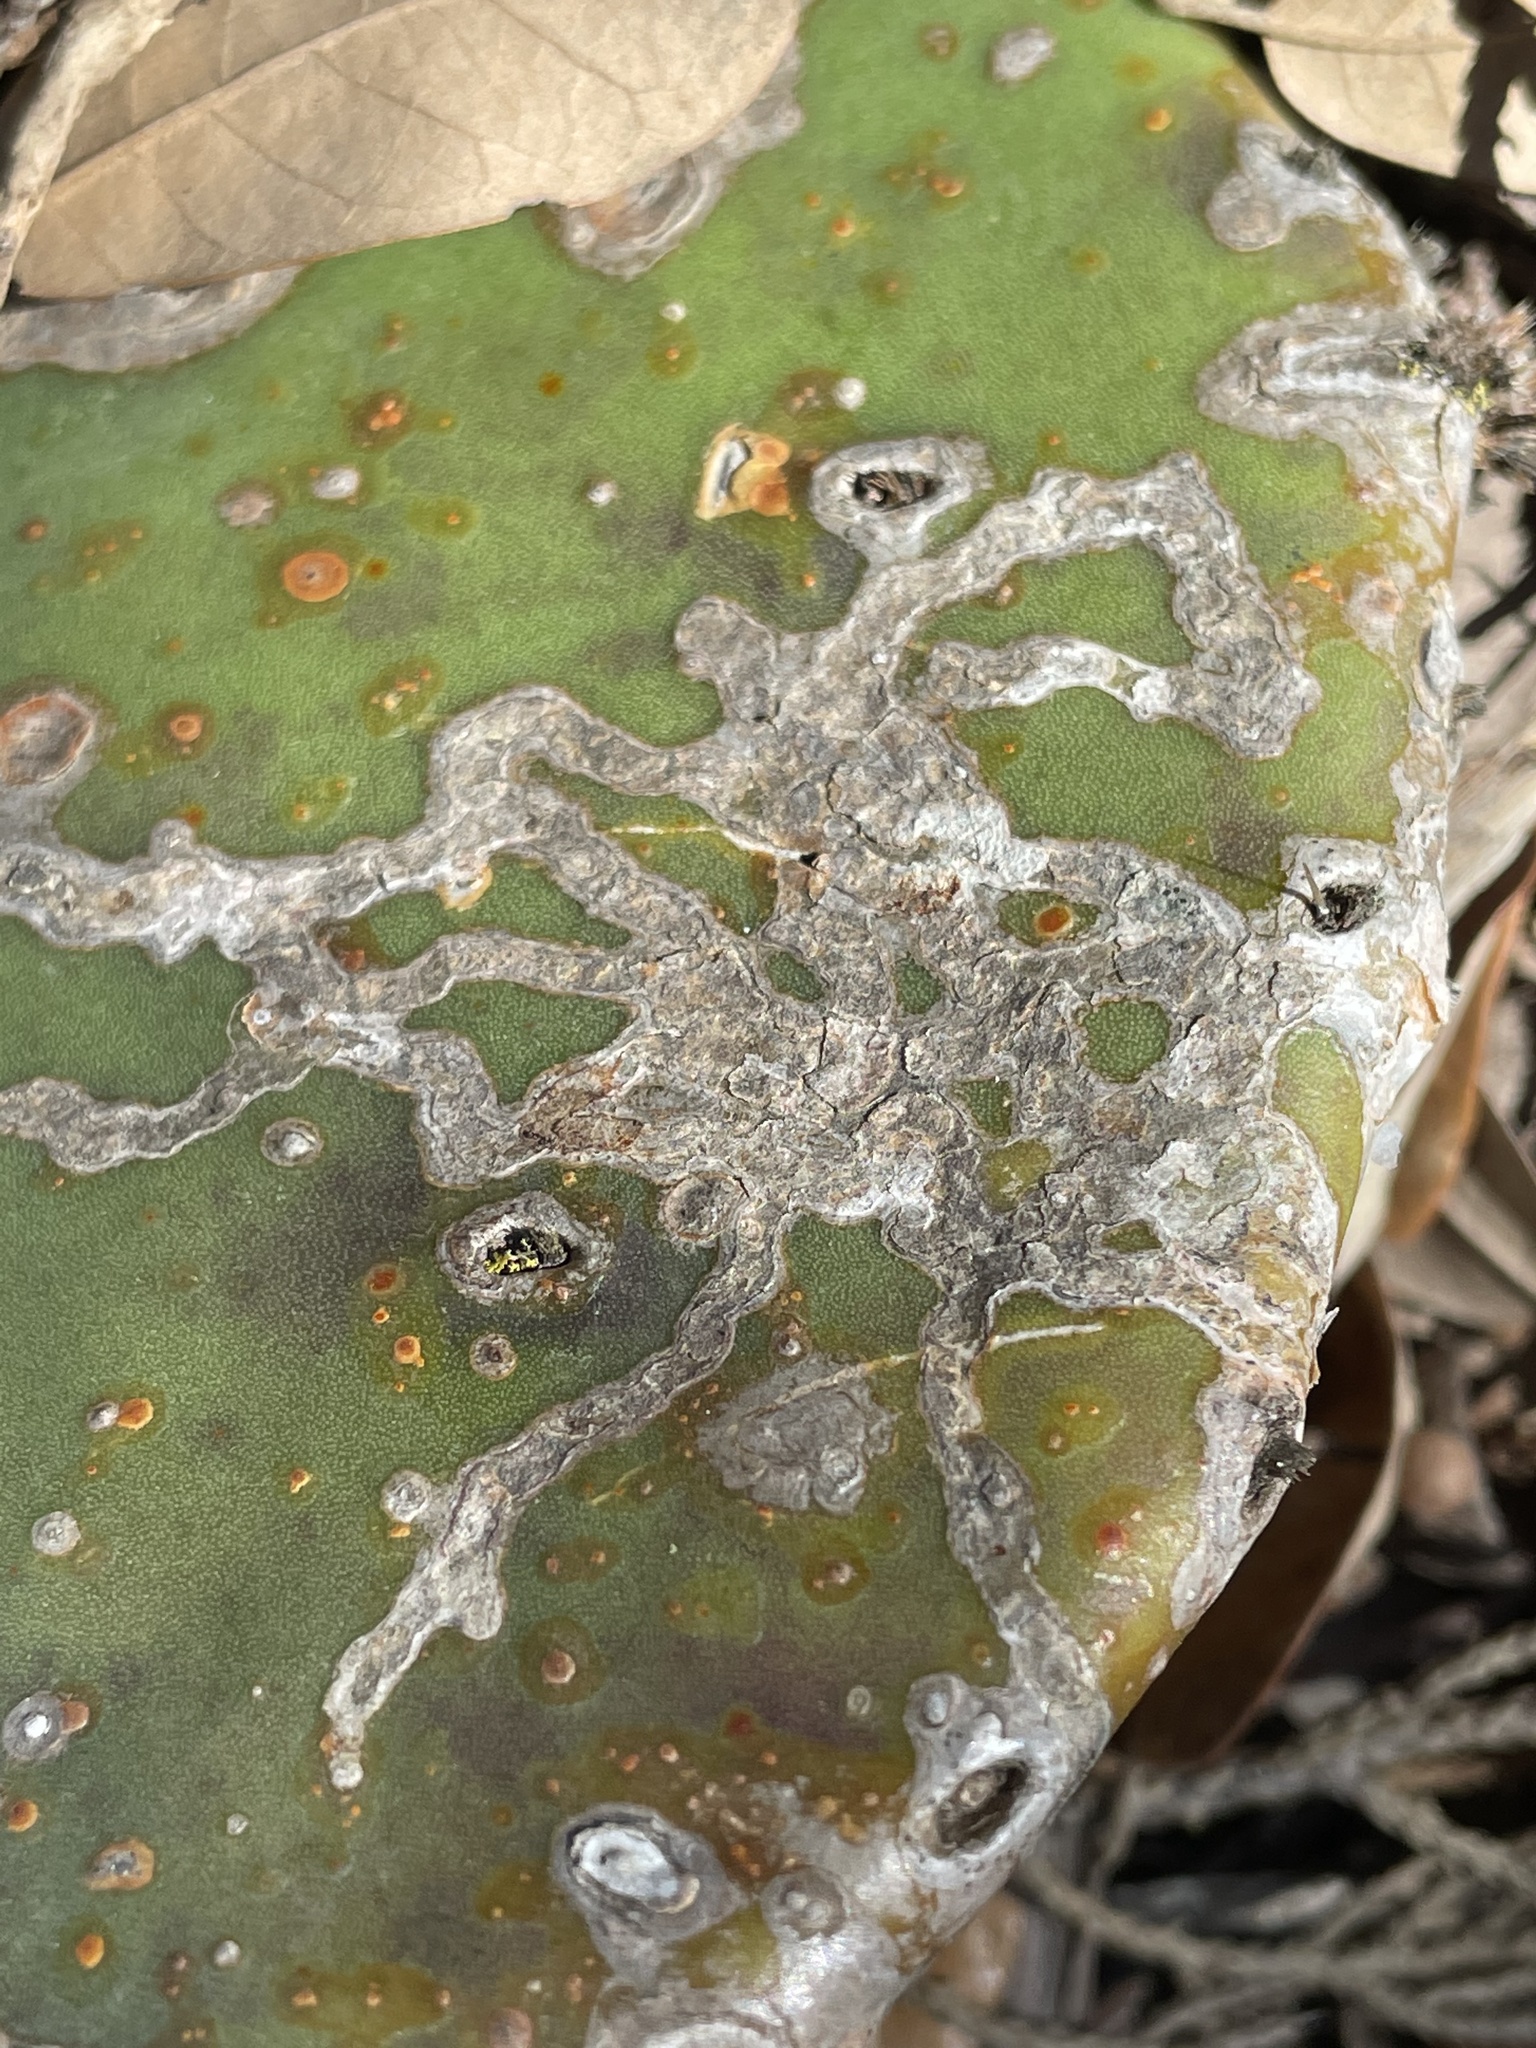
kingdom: Animalia
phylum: Arthropoda
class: Insecta
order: Lepidoptera
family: Gracillariidae
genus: Marmara
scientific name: Marmara opuntiella
